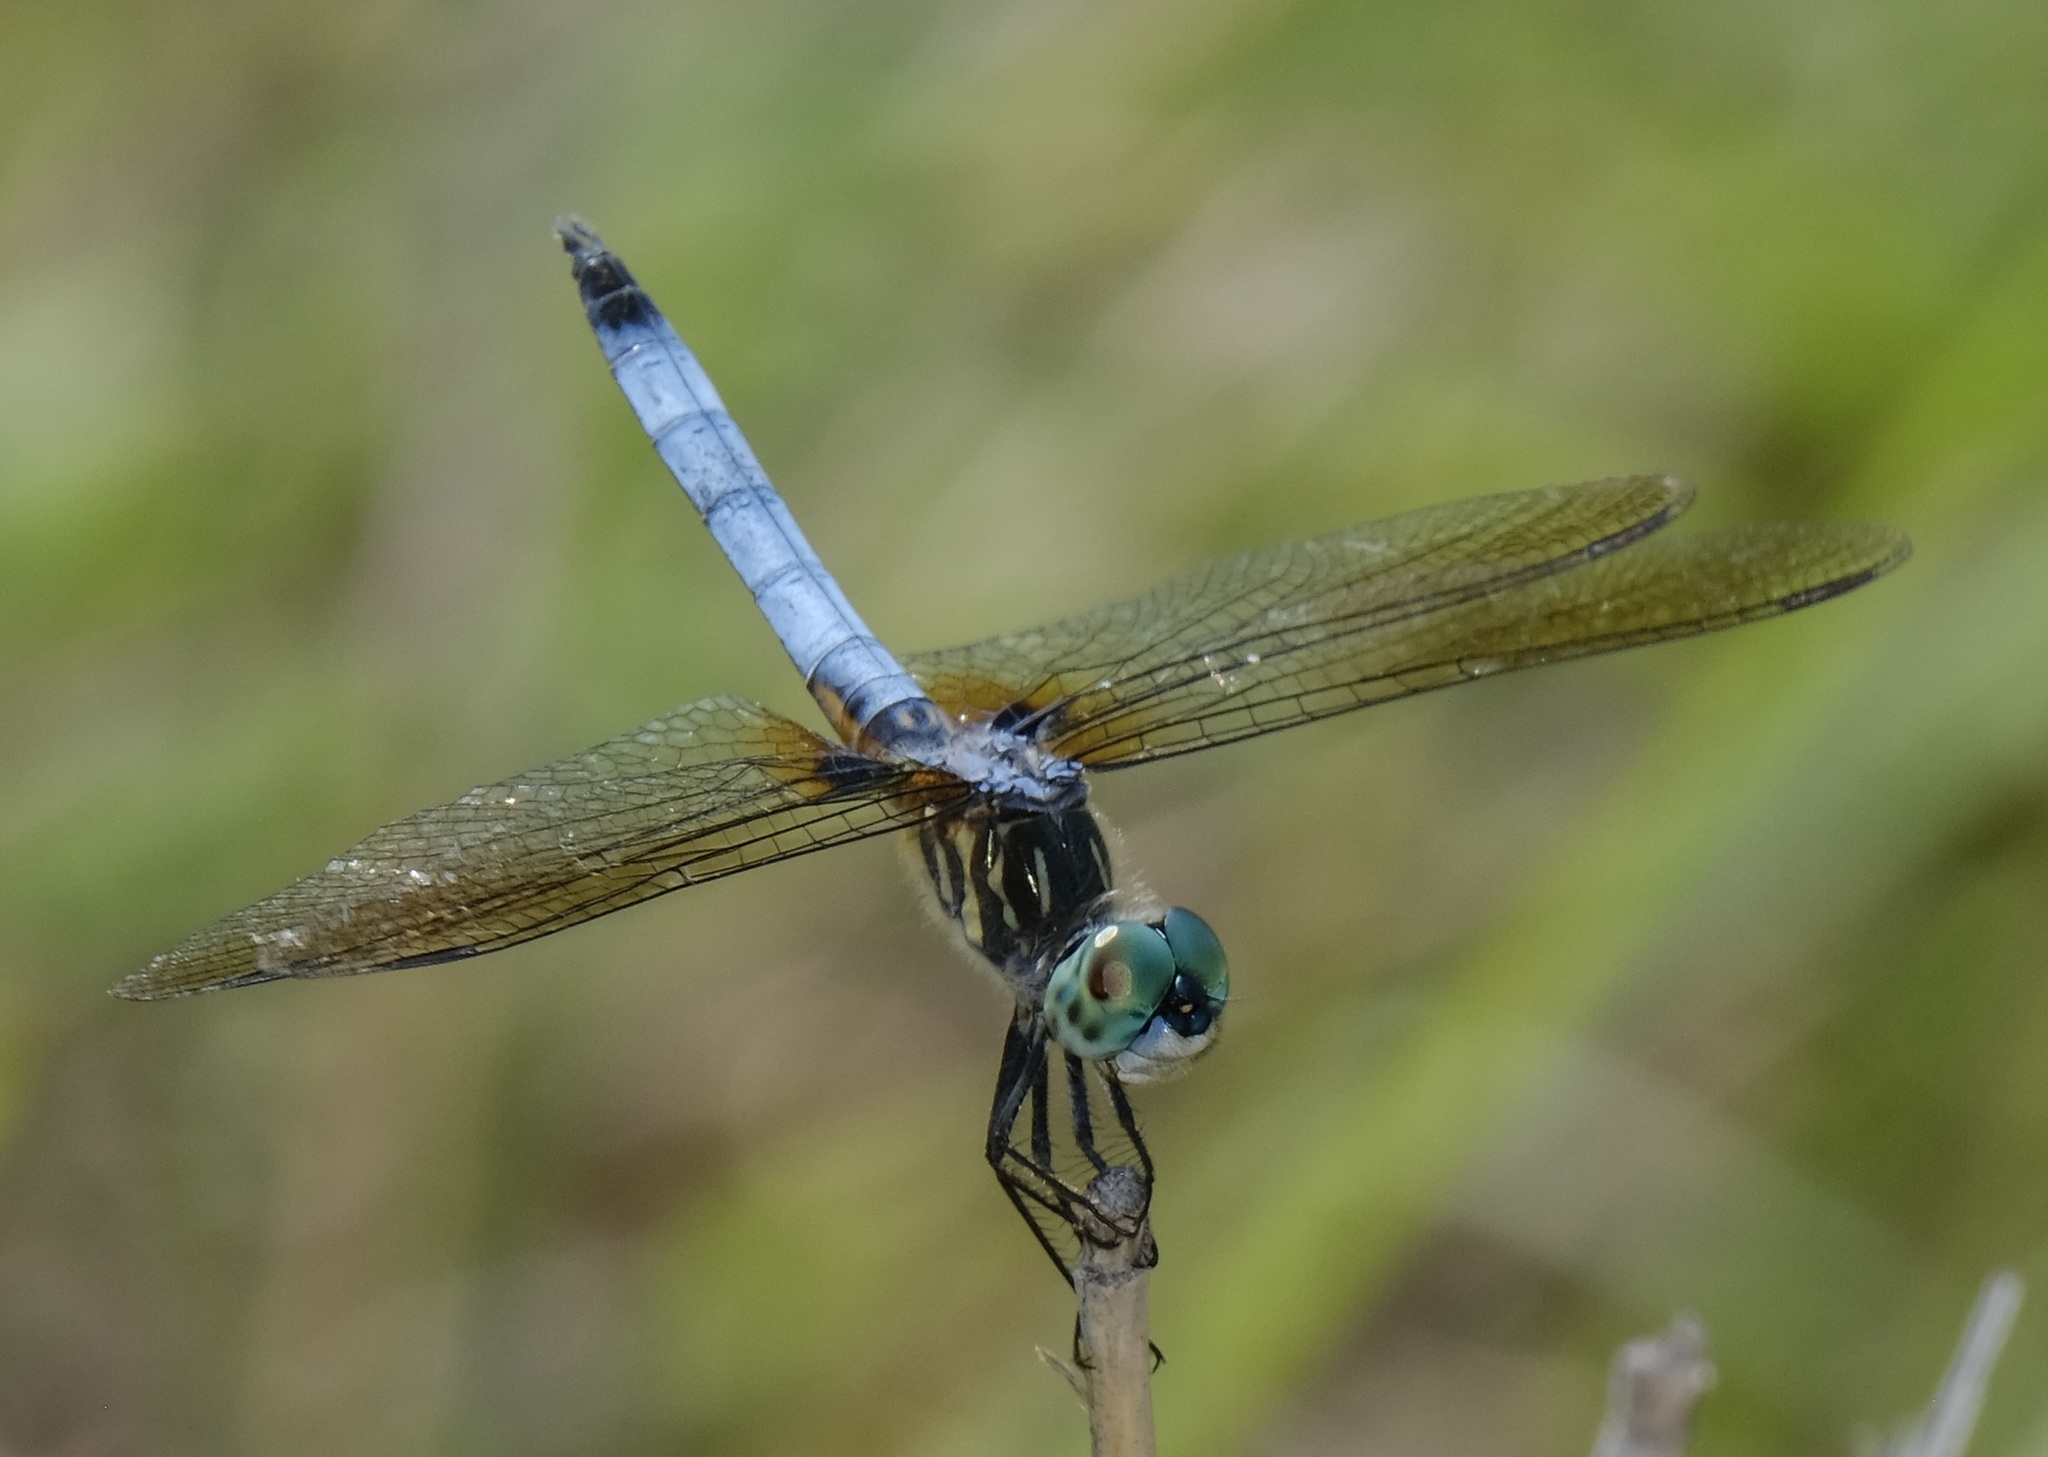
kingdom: Animalia
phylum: Arthropoda
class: Insecta
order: Odonata
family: Libellulidae
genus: Pachydiplax
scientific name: Pachydiplax longipennis
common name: Blue dasher
